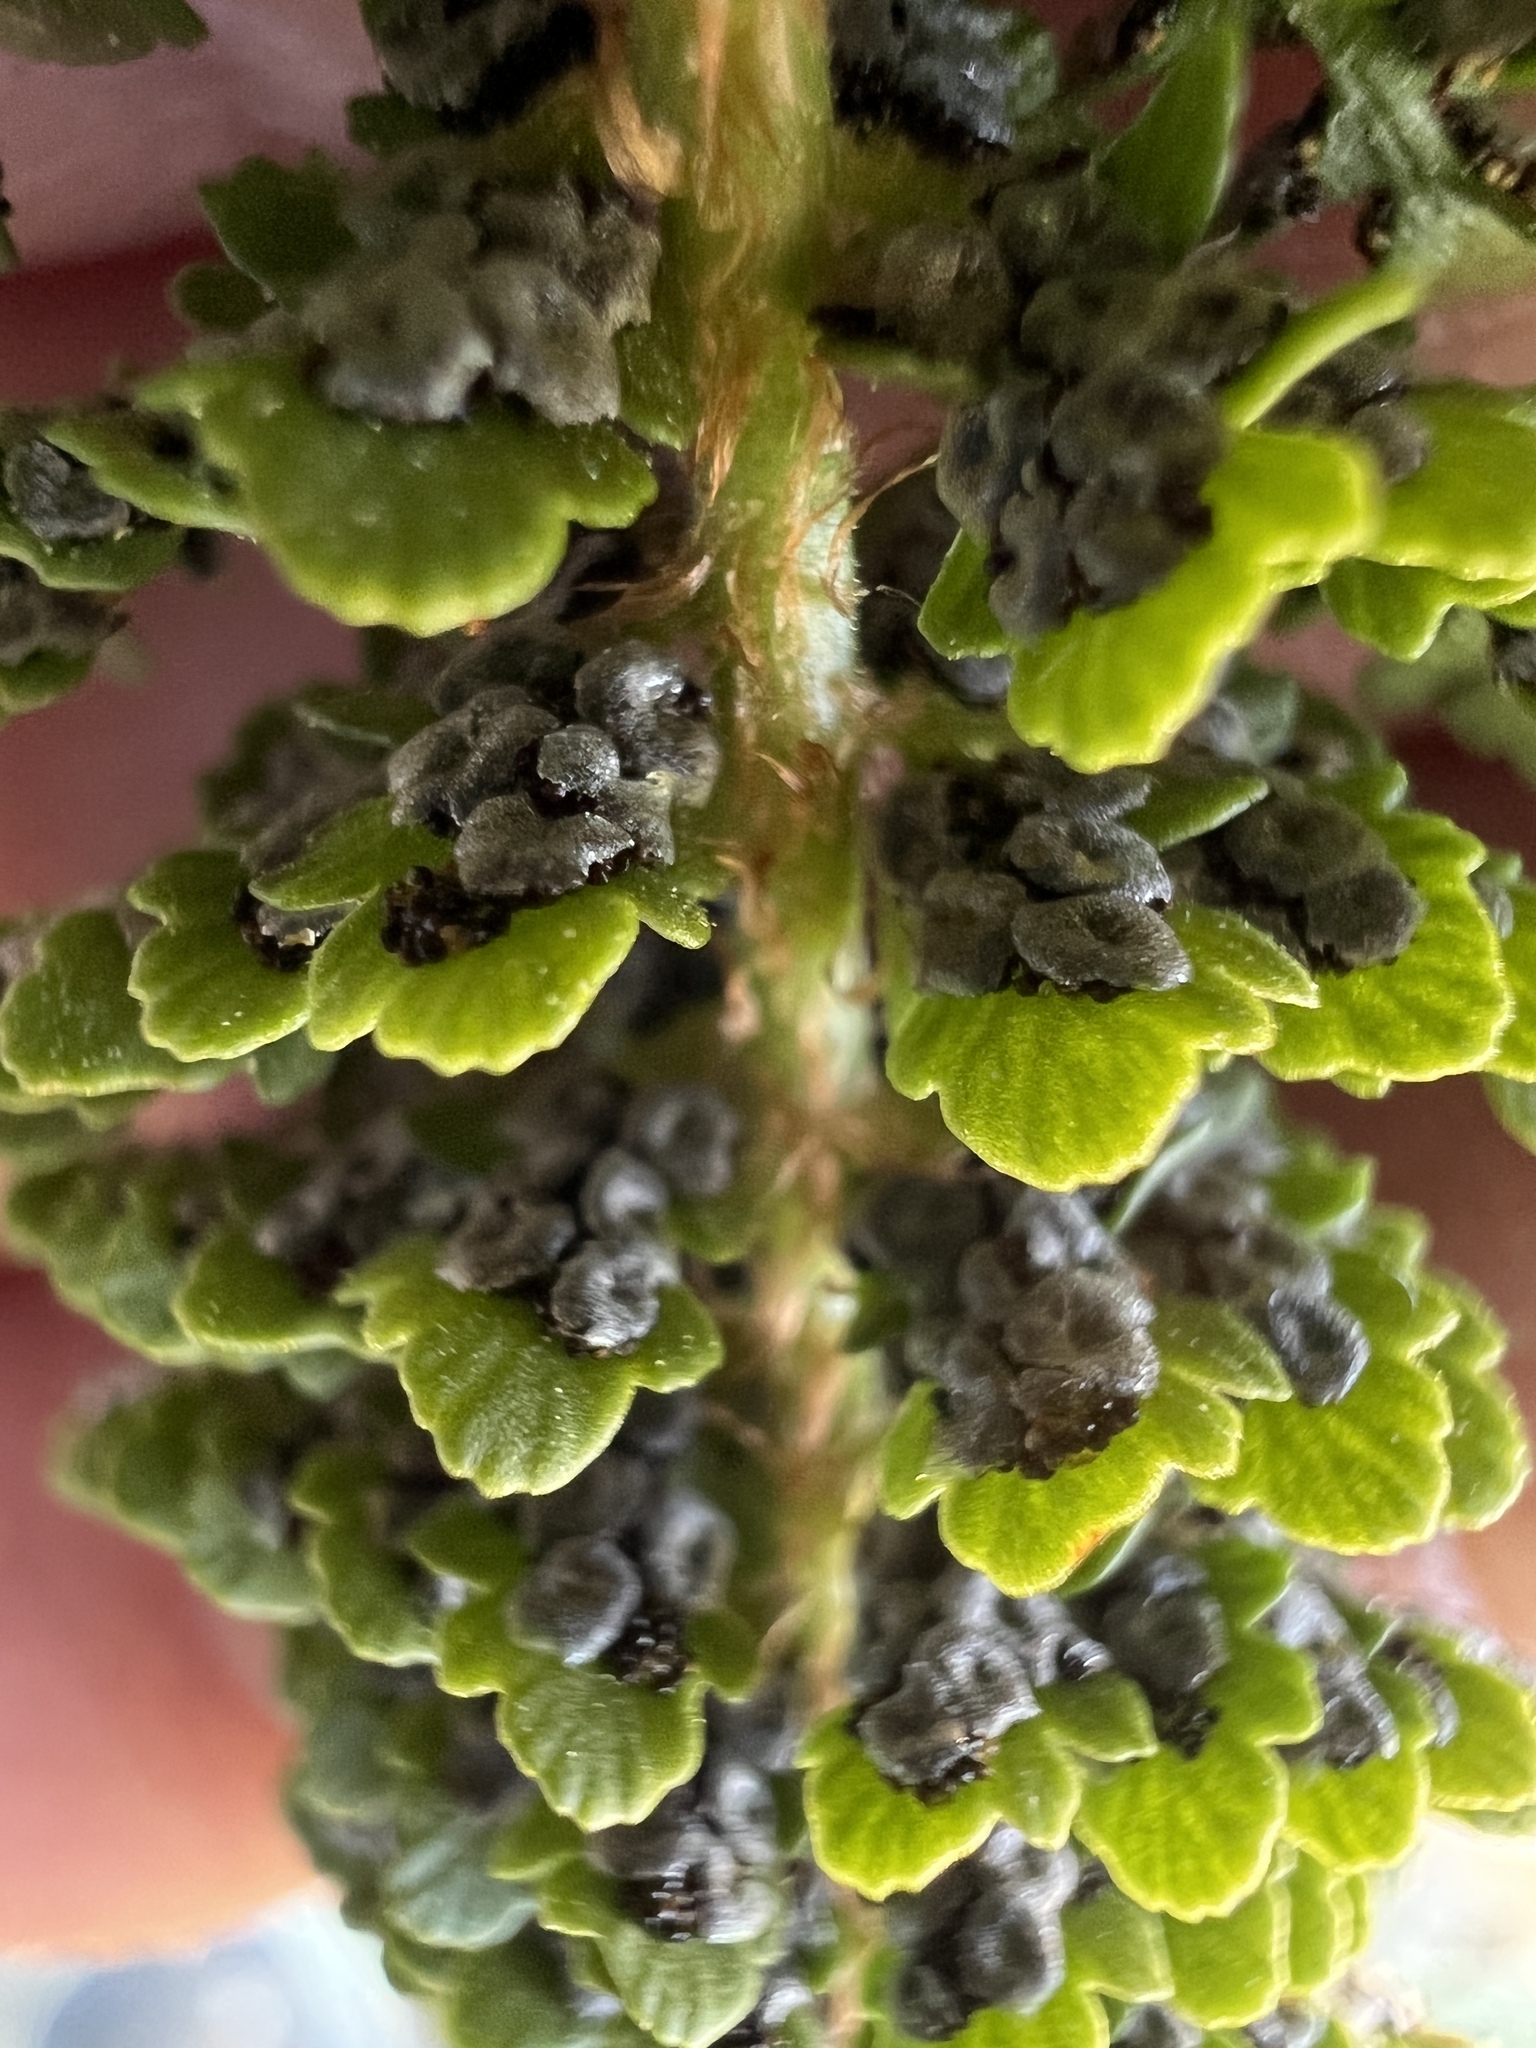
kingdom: Plantae
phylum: Tracheophyta
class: Polypodiopsida
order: Polypodiales
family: Dryopteridaceae
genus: Polystichum
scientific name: Polystichum lemmonii
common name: Lemmon's holly fern
